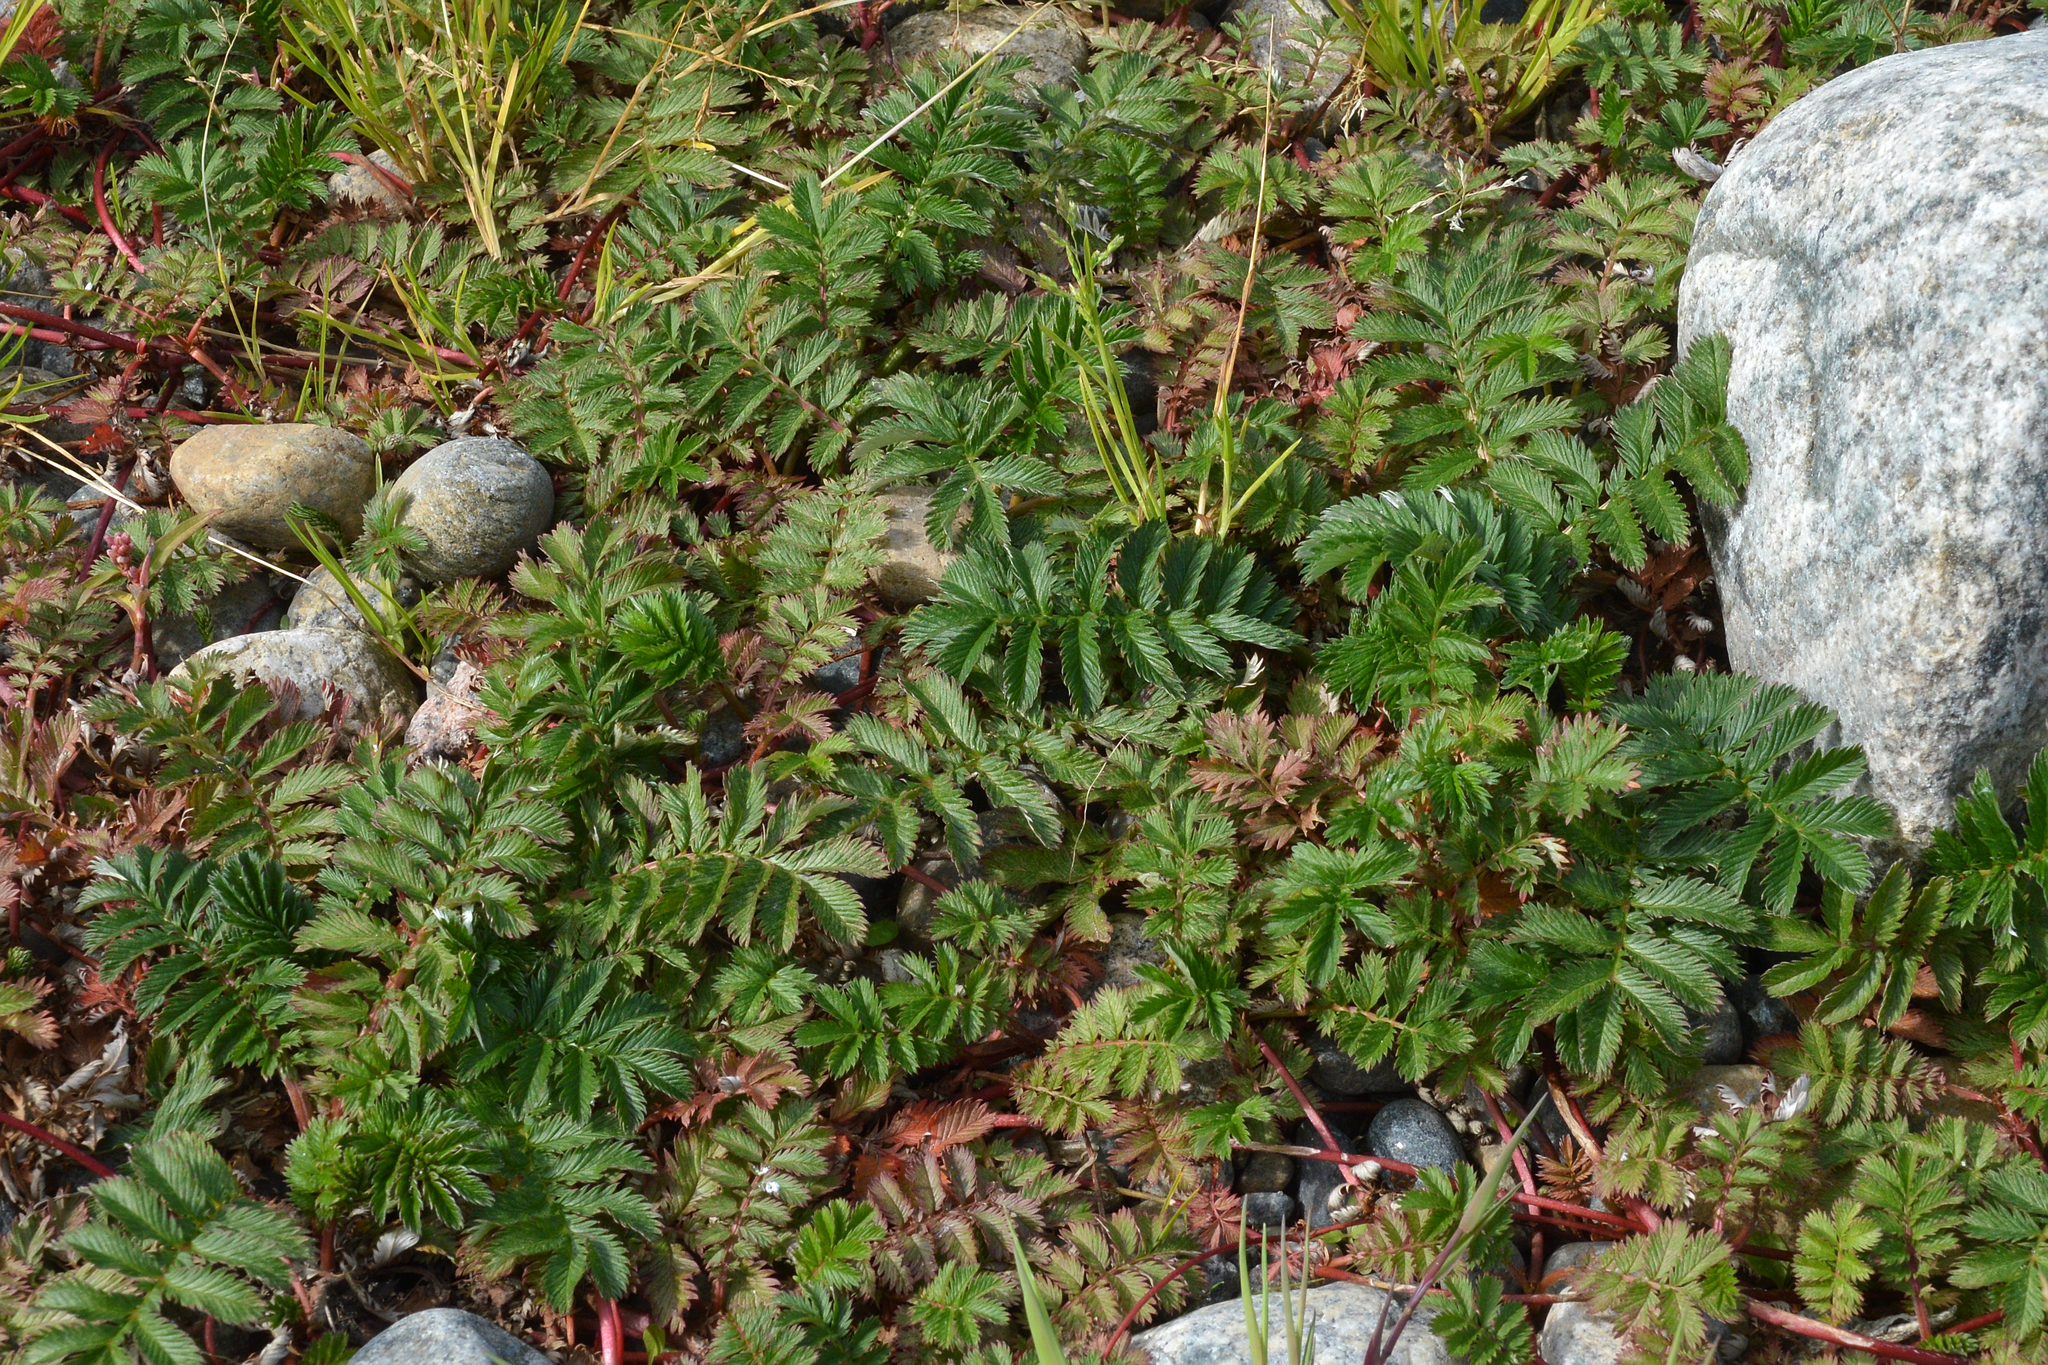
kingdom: Plantae
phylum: Tracheophyta
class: Magnoliopsida
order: Rosales
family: Rosaceae
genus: Argentina
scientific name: Argentina anserina
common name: Common silverweed
